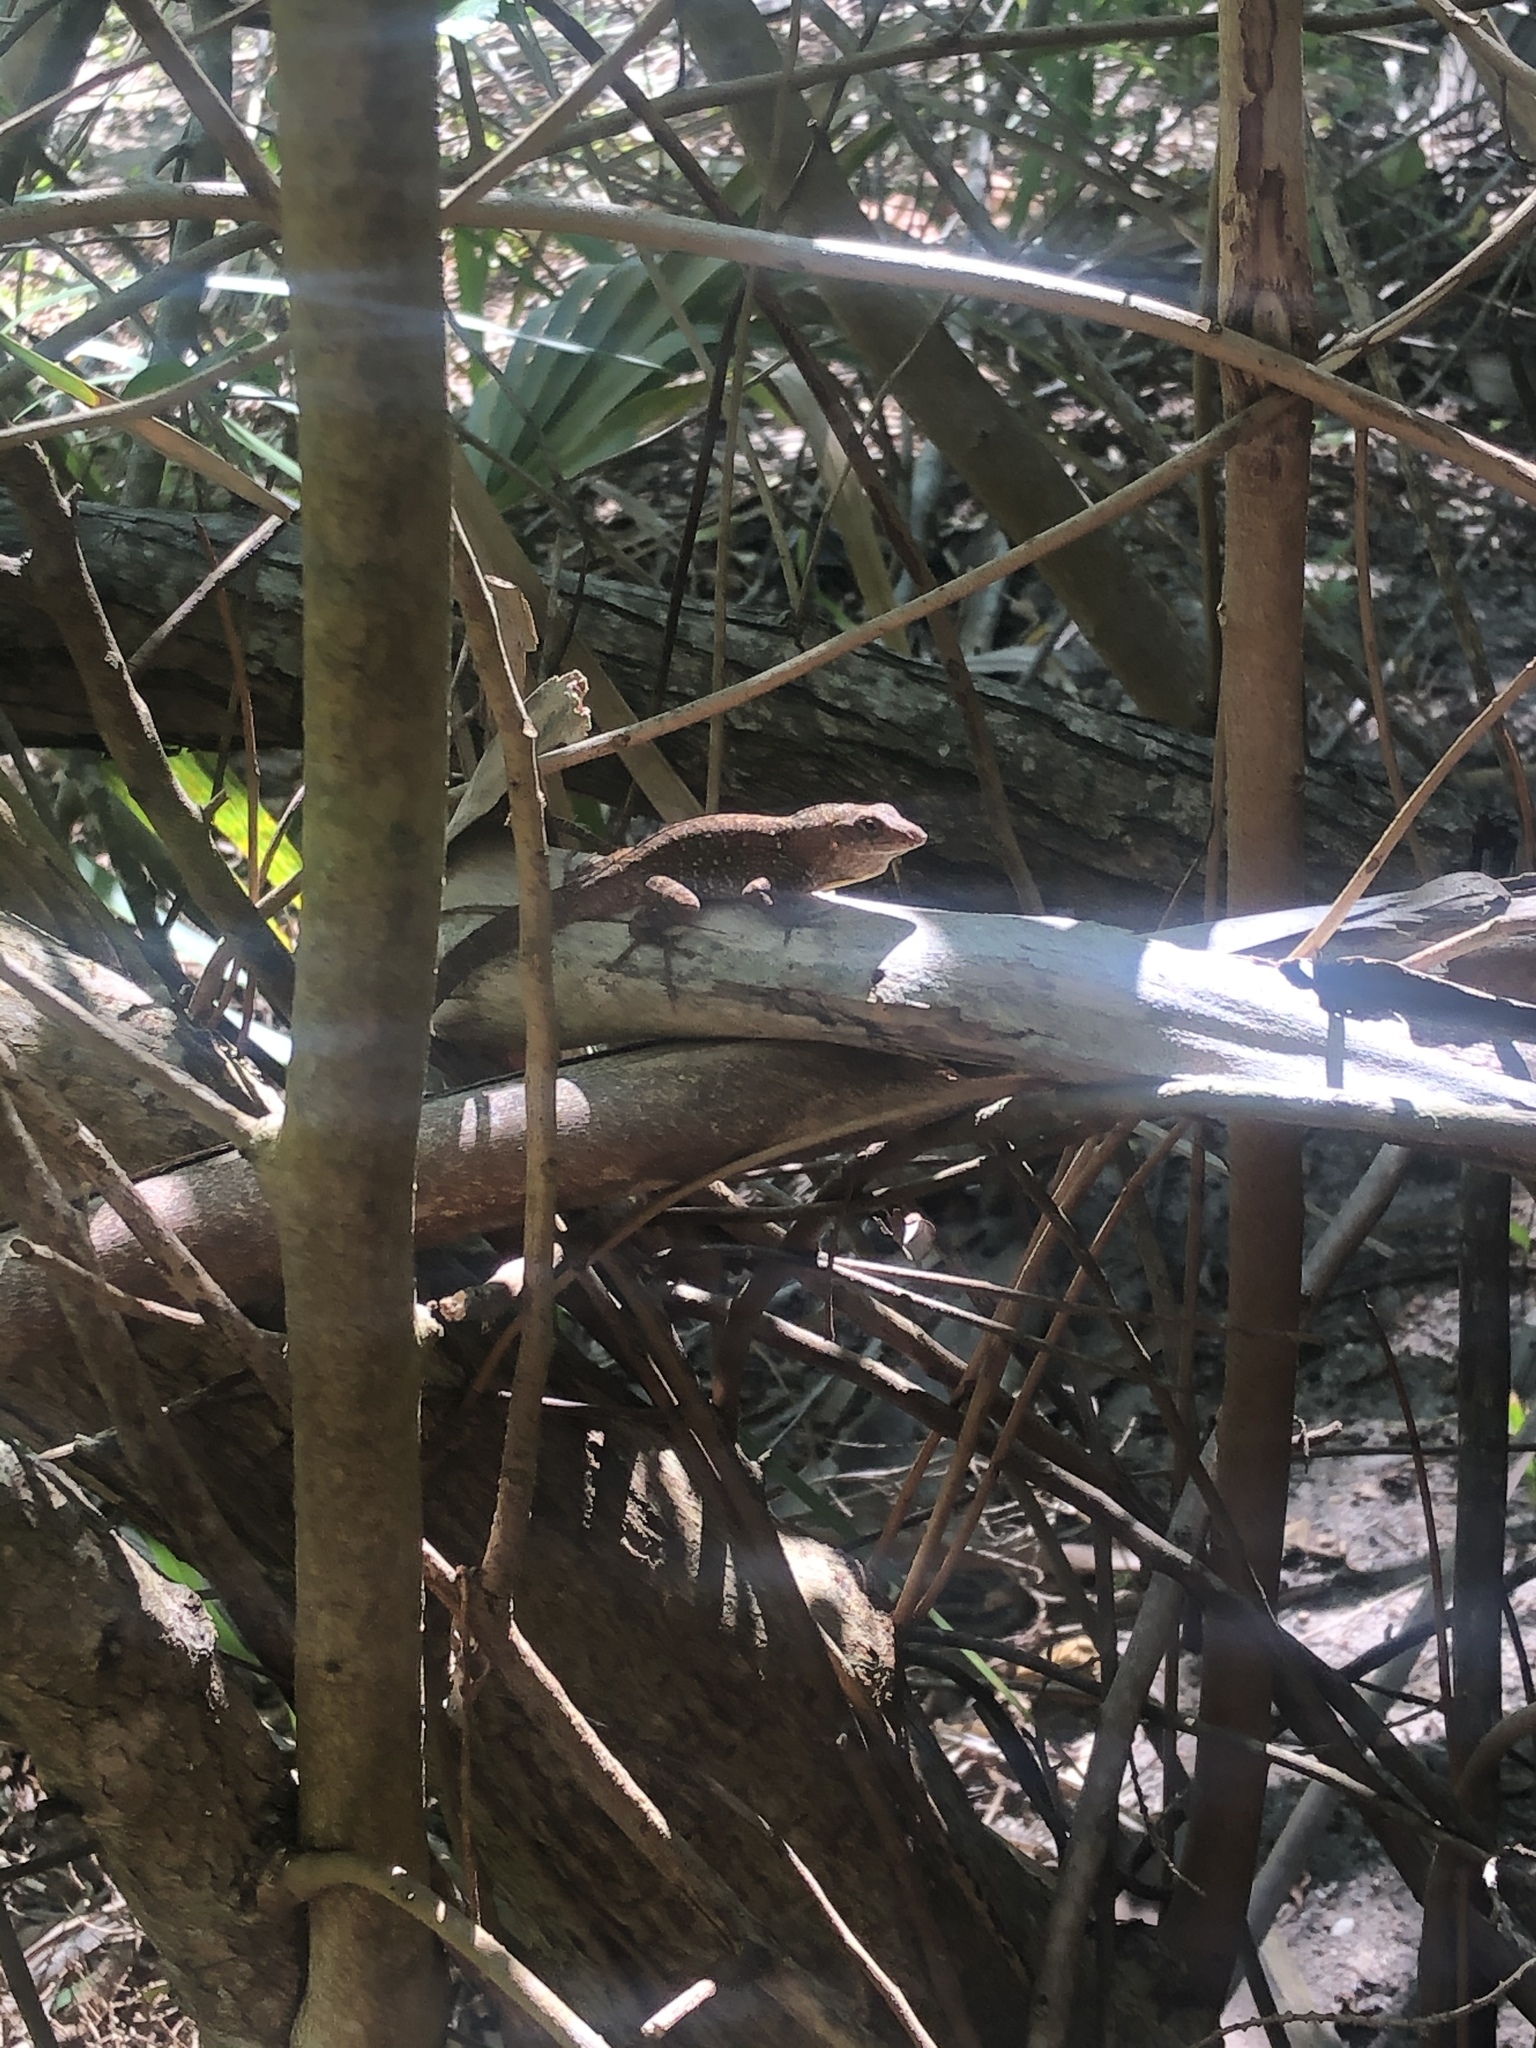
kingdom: Animalia
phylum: Chordata
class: Squamata
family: Dactyloidae
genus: Anolis
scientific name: Anolis sagrei
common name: Brown anole
